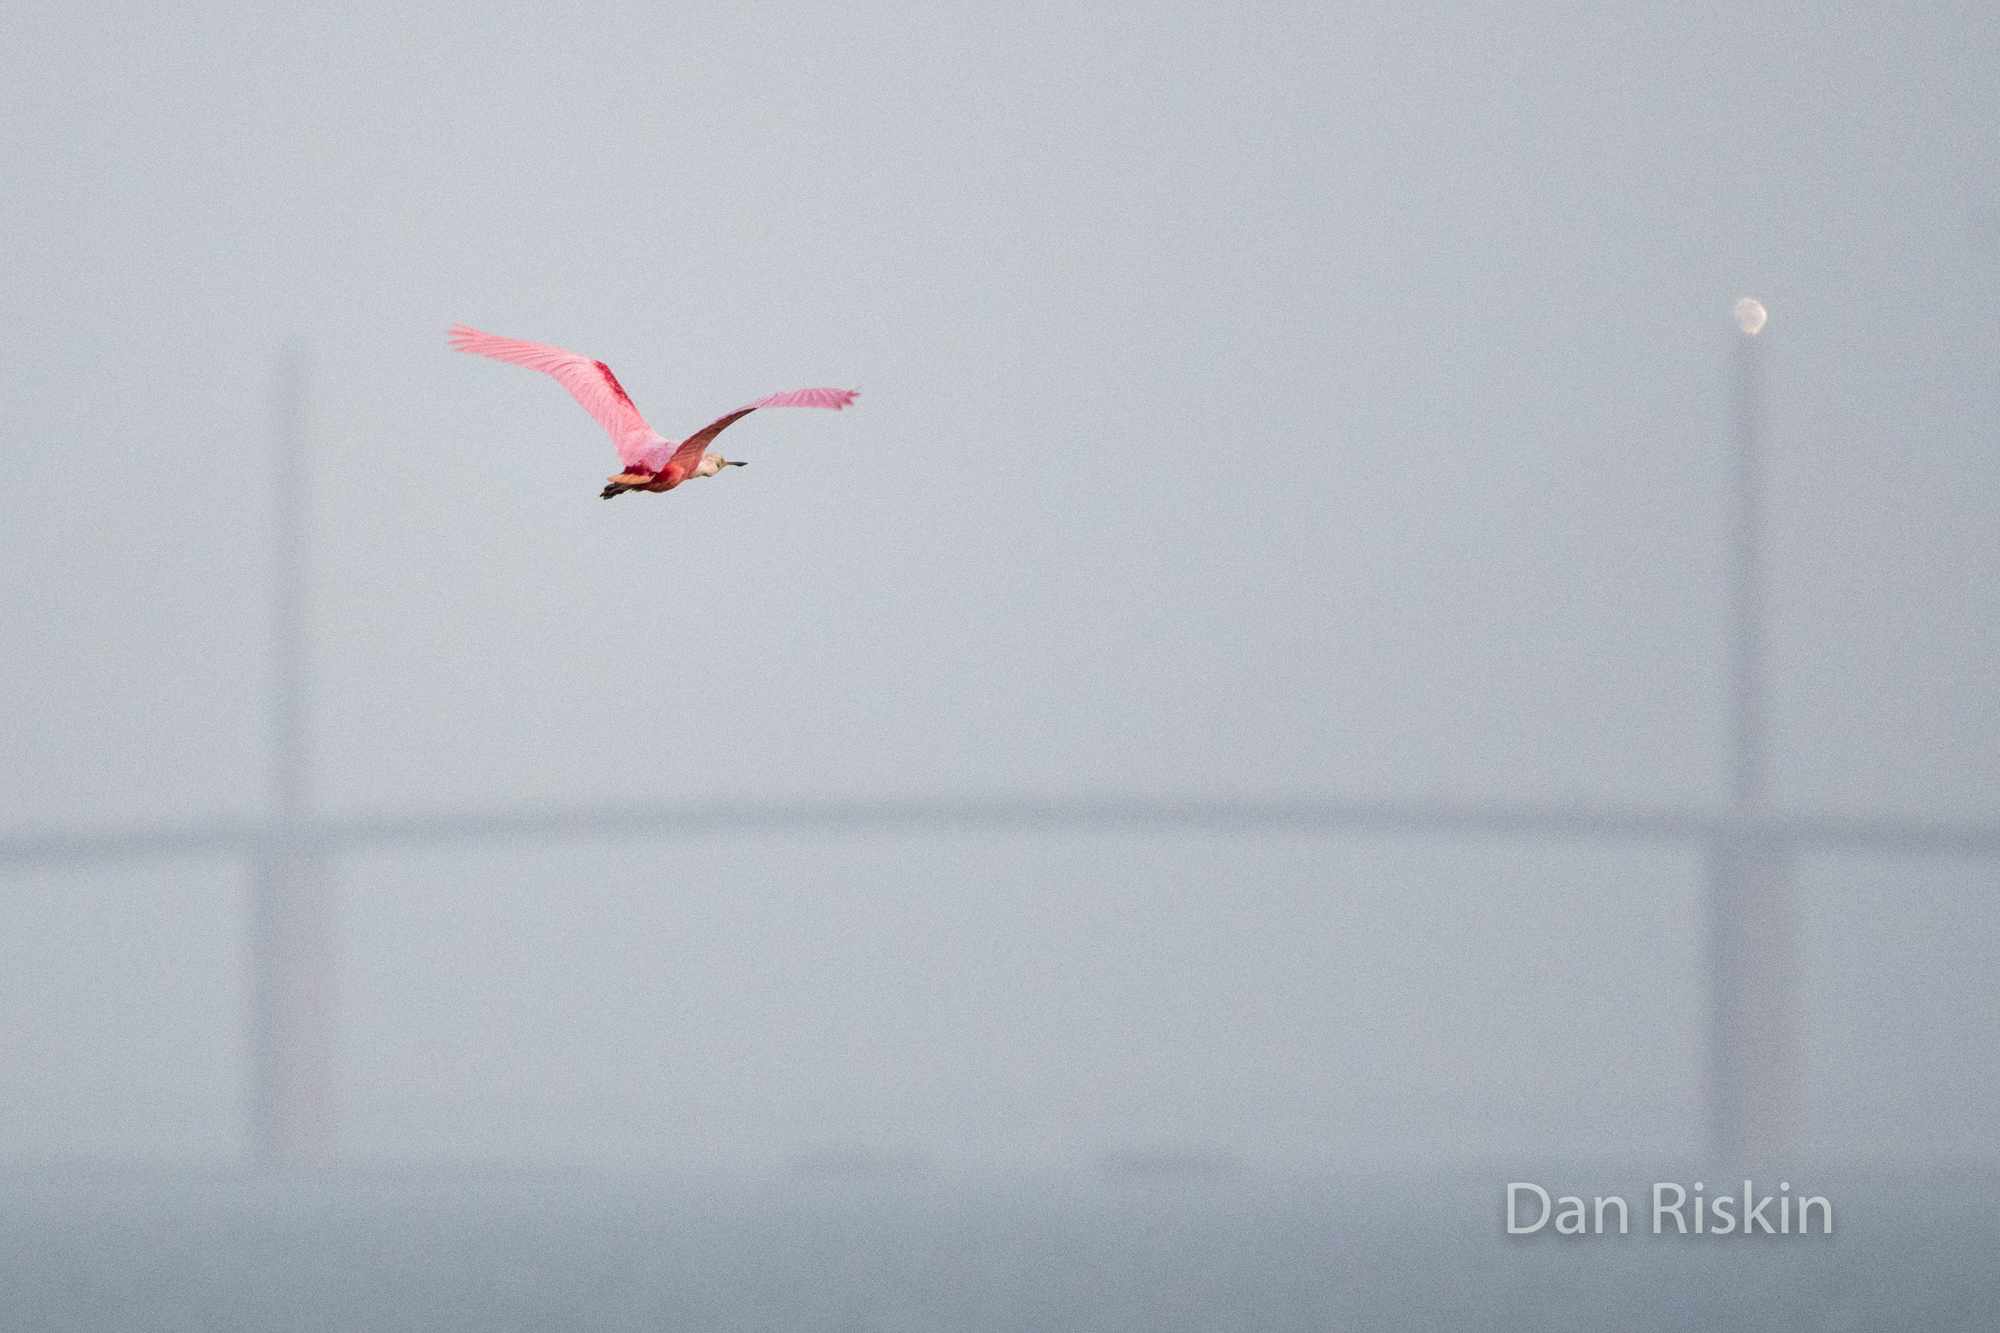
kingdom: Animalia
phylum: Chordata
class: Aves
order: Pelecaniformes
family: Threskiornithidae
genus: Platalea
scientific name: Platalea ajaja
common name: Roseate spoonbill
